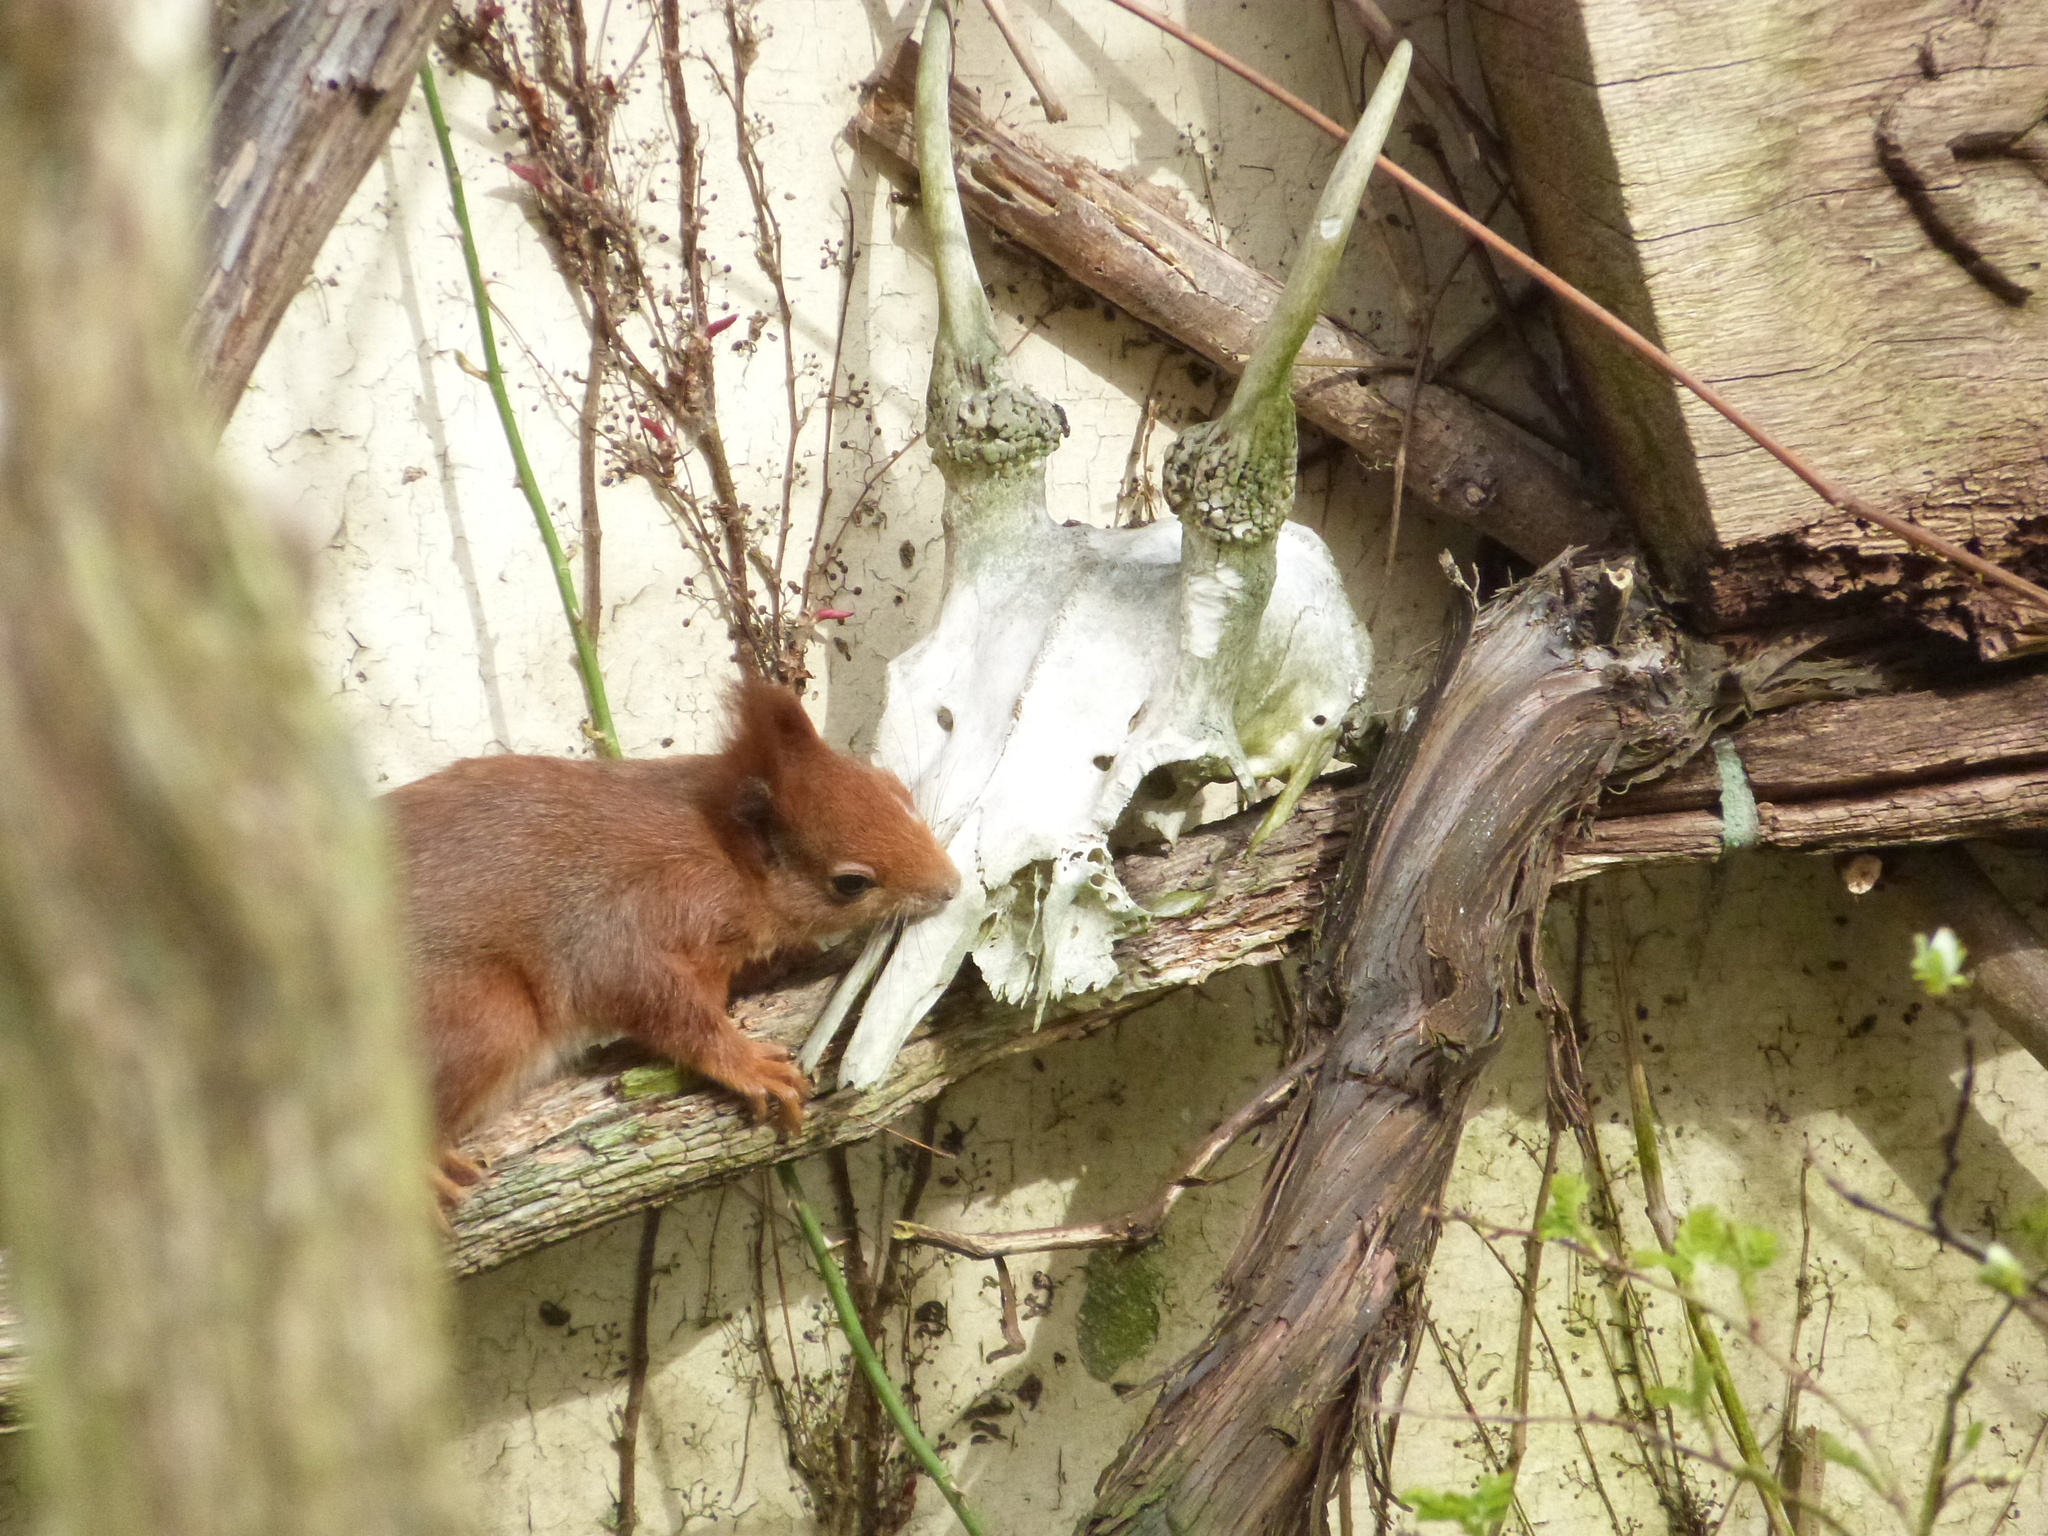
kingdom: Animalia
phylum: Chordata
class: Mammalia
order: Rodentia
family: Sciuridae
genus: Sciurus
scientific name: Sciurus vulgaris
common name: Eurasian red squirrel
